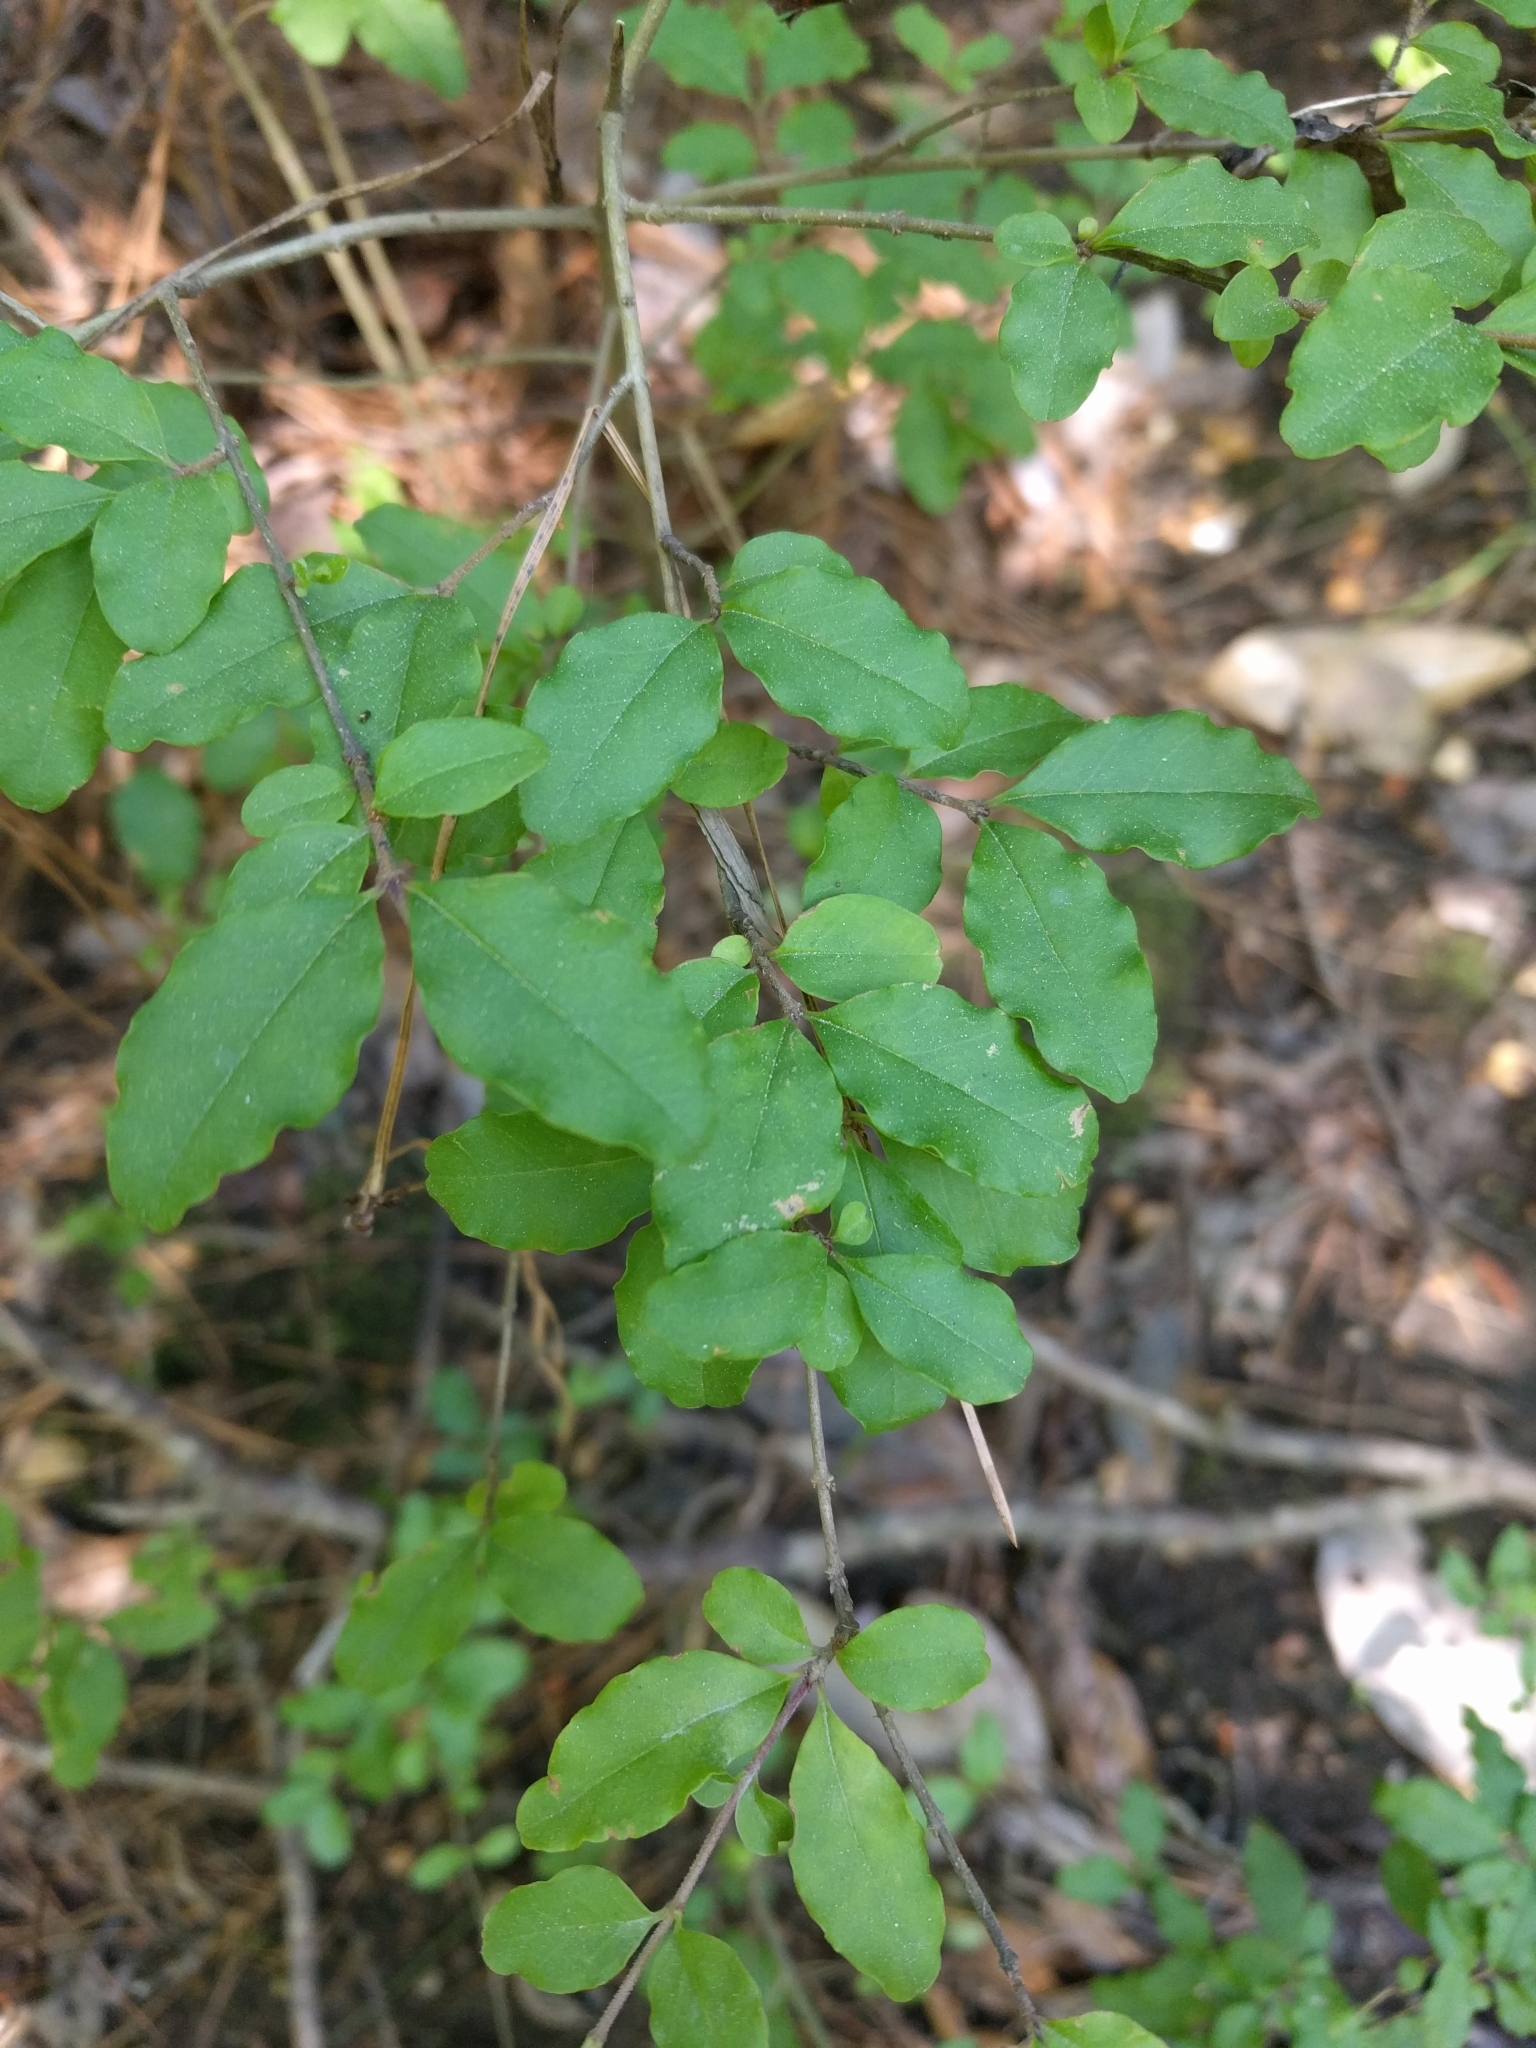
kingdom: Plantae
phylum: Tracheophyta
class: Magnoliopsida
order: Lamiales
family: Oleaceae
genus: Ligustrum
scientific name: Ligustrum sinense
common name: Chinese privet
